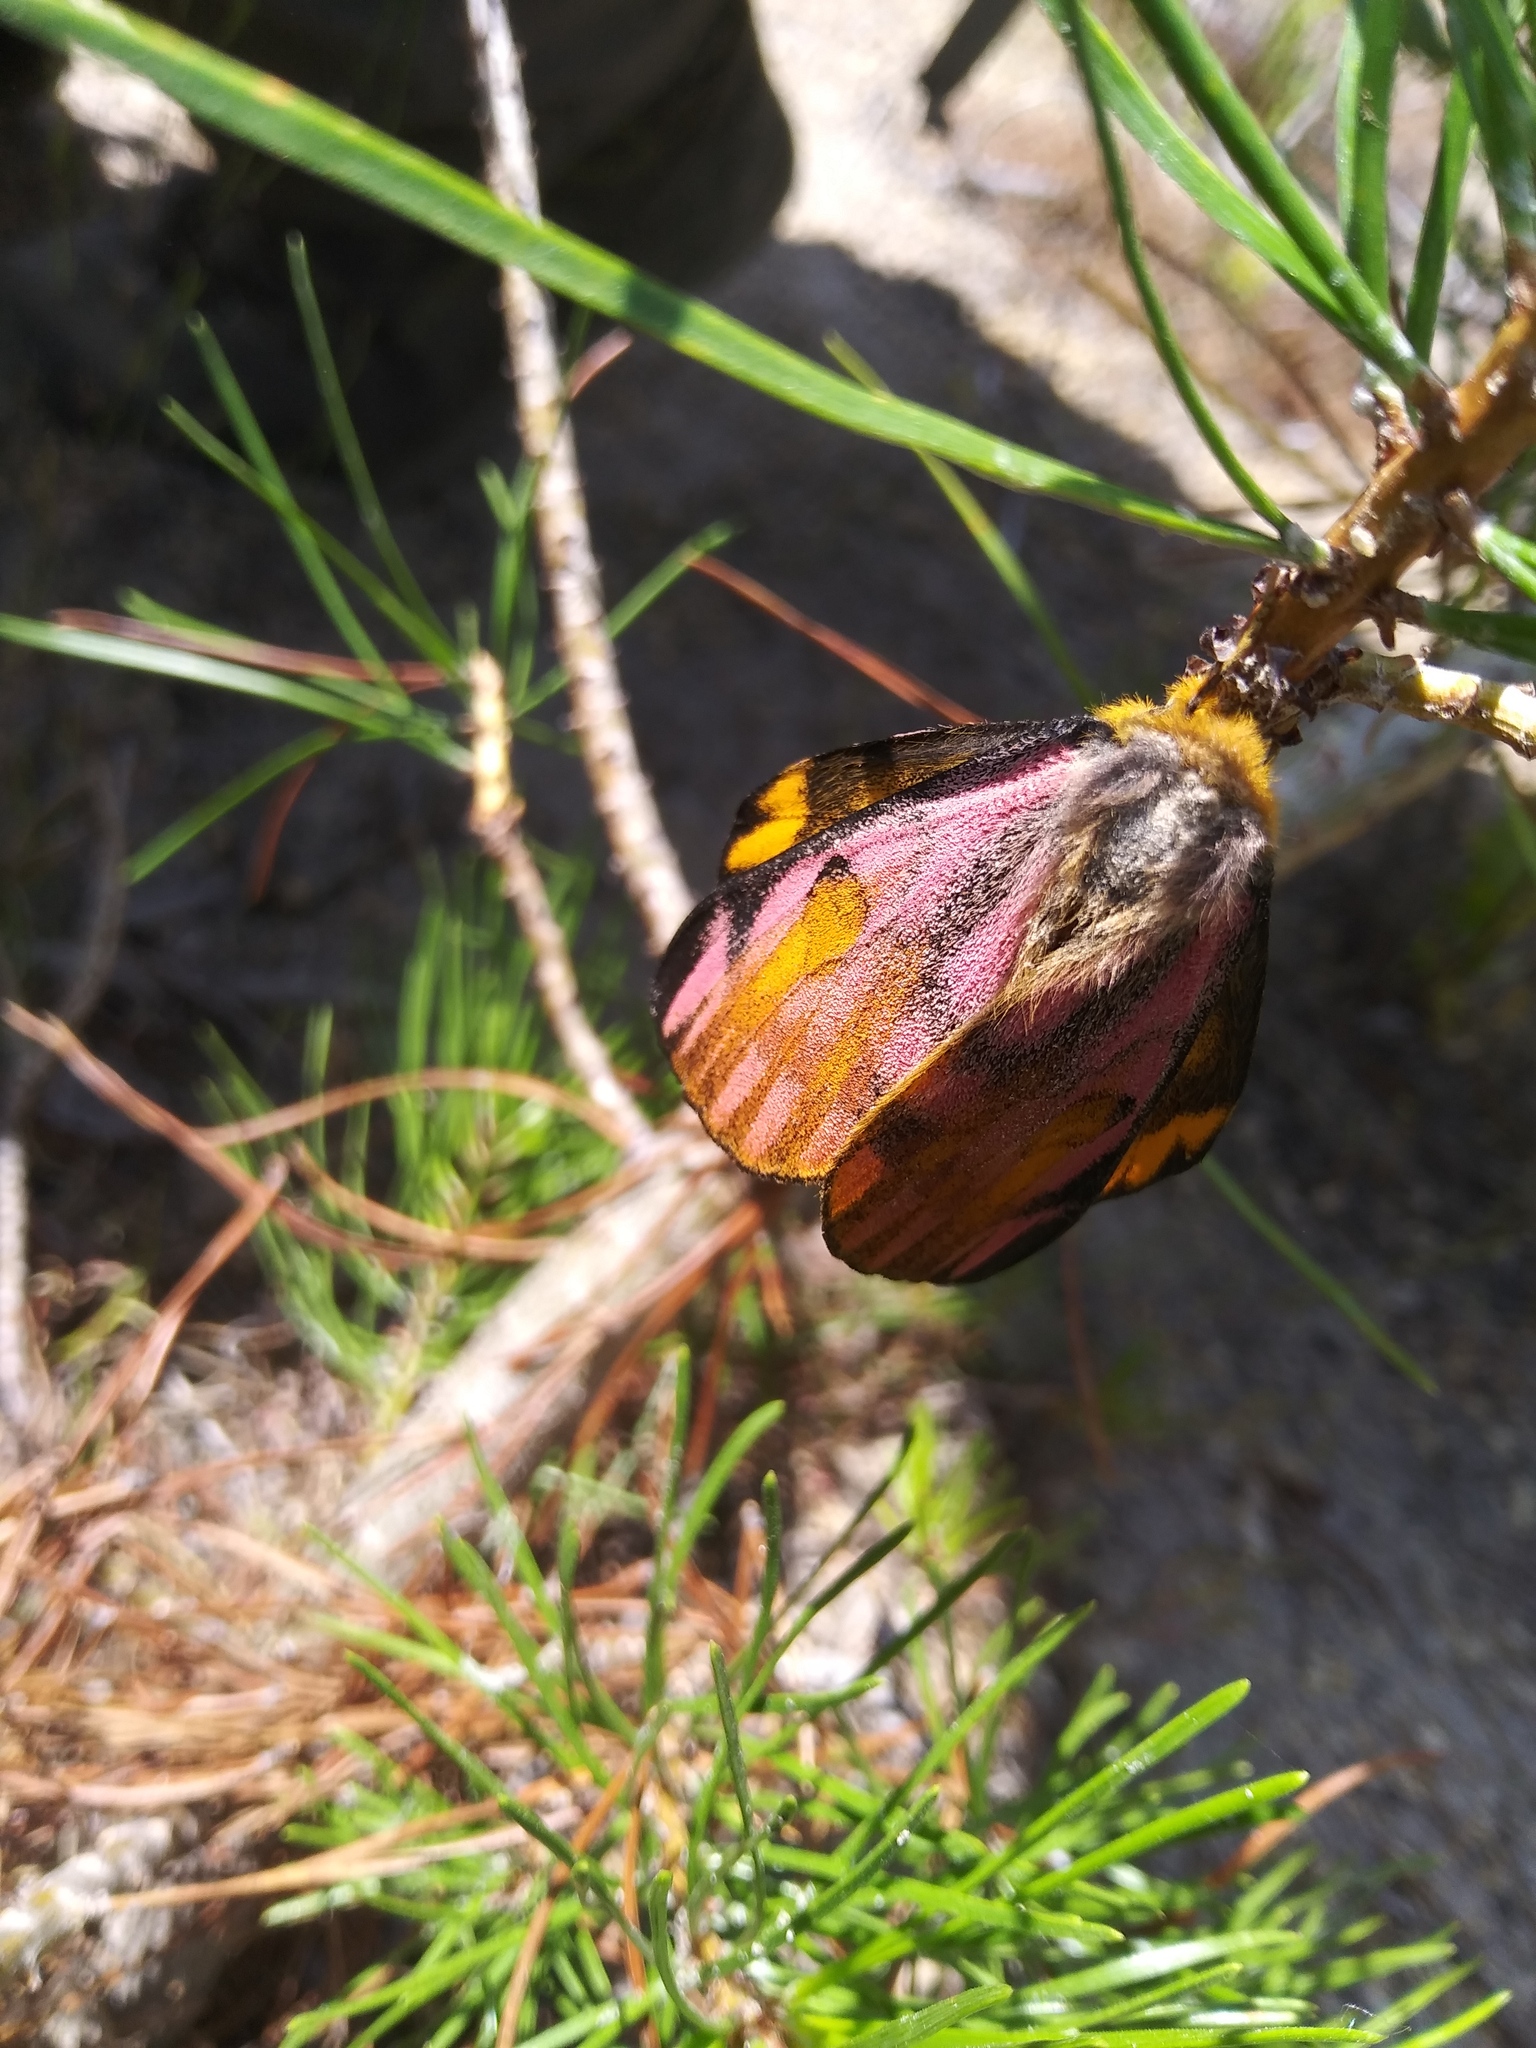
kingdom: Animalia
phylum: Arthropoda
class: Insecta
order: Lepidoptera
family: Saturniidae
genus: Hemileuca
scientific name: Hemileuca eglanterina
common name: Western sheepmoth
